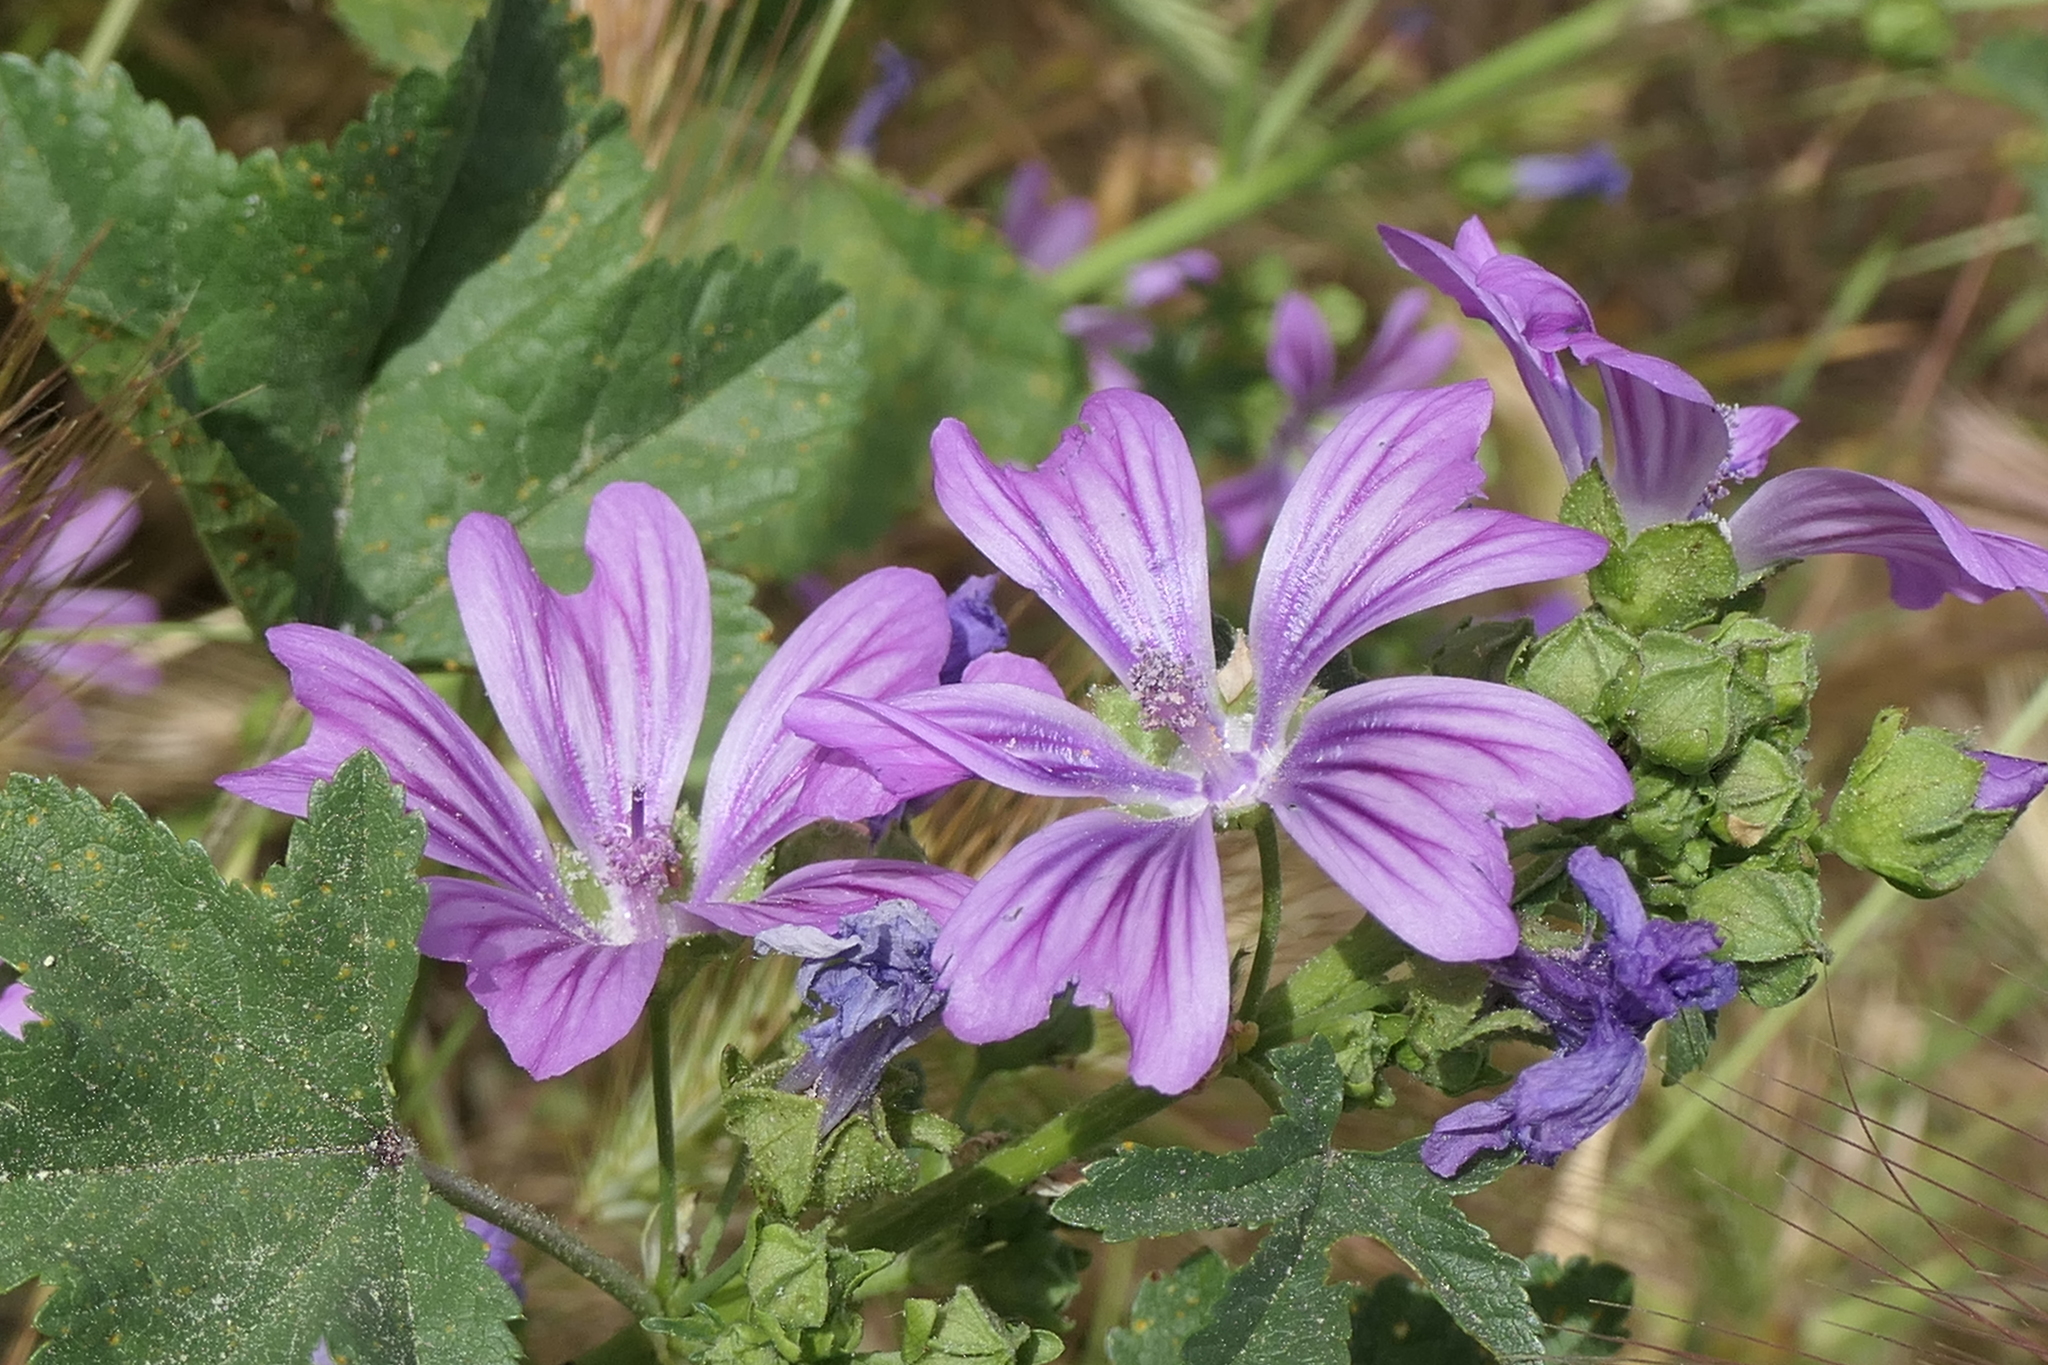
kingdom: Plantae
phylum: Tracheophyta
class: Magnoliopsida
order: Malvales
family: Malvaceae
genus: Malva
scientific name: Malva sylvestris
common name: Common mallow
